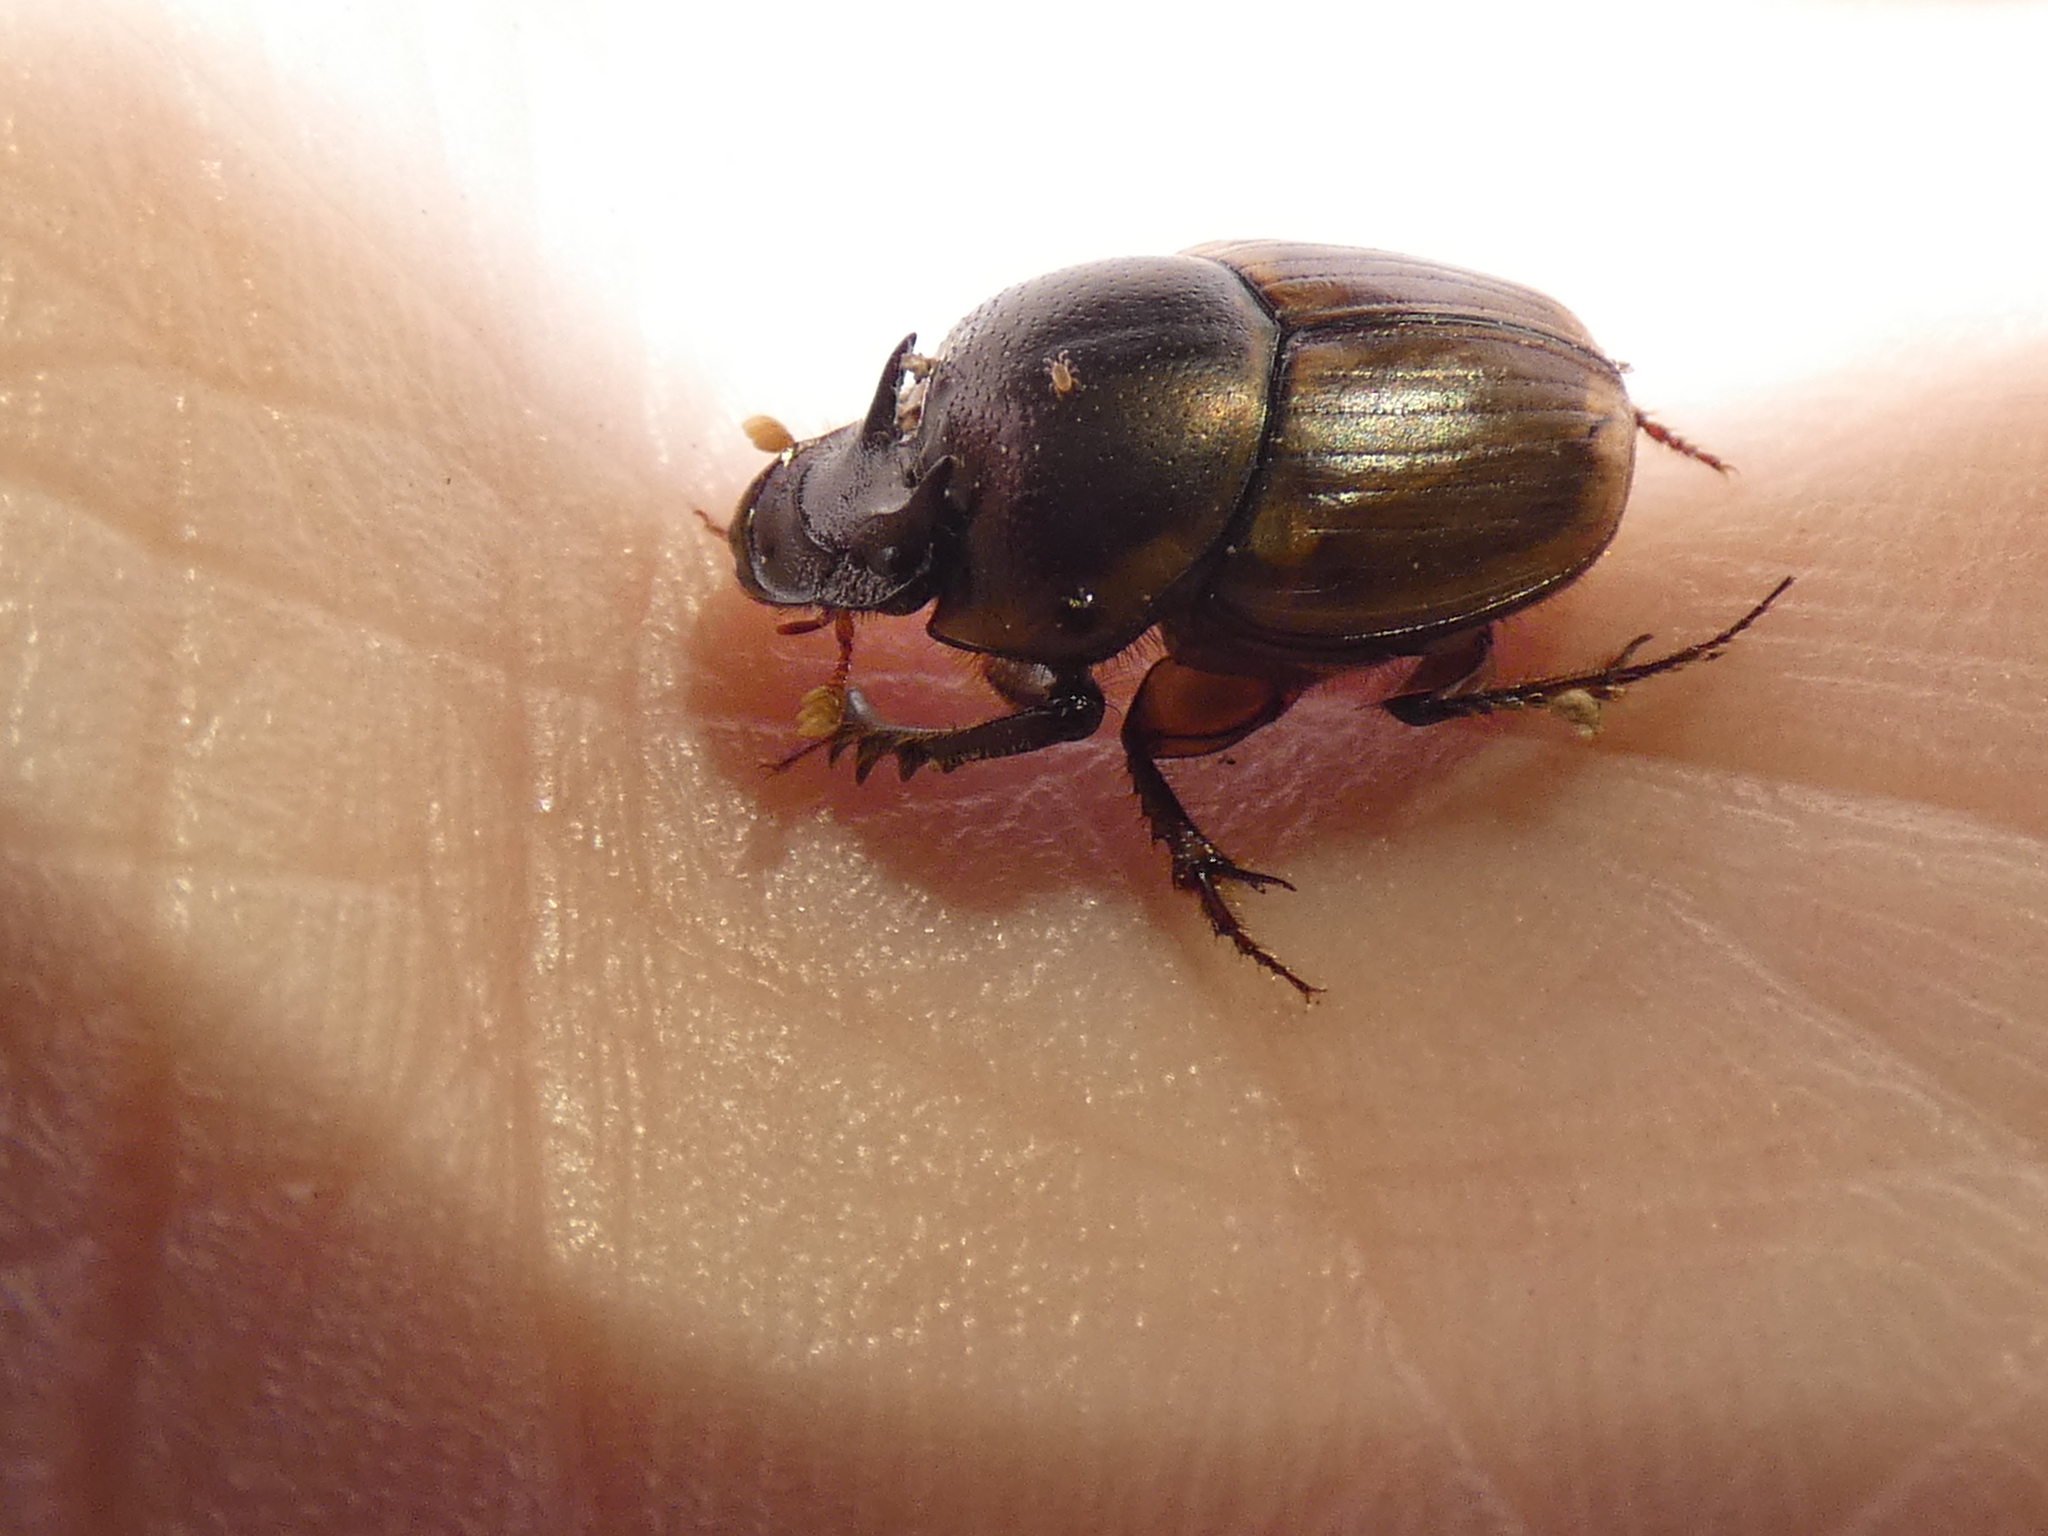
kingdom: Animalia
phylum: Arthropoda
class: Insecta
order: Coleoptera
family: Scarabaeidae
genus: Digitonthophagus
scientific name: Digitonthophagus gazella
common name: Brown dung beetle
